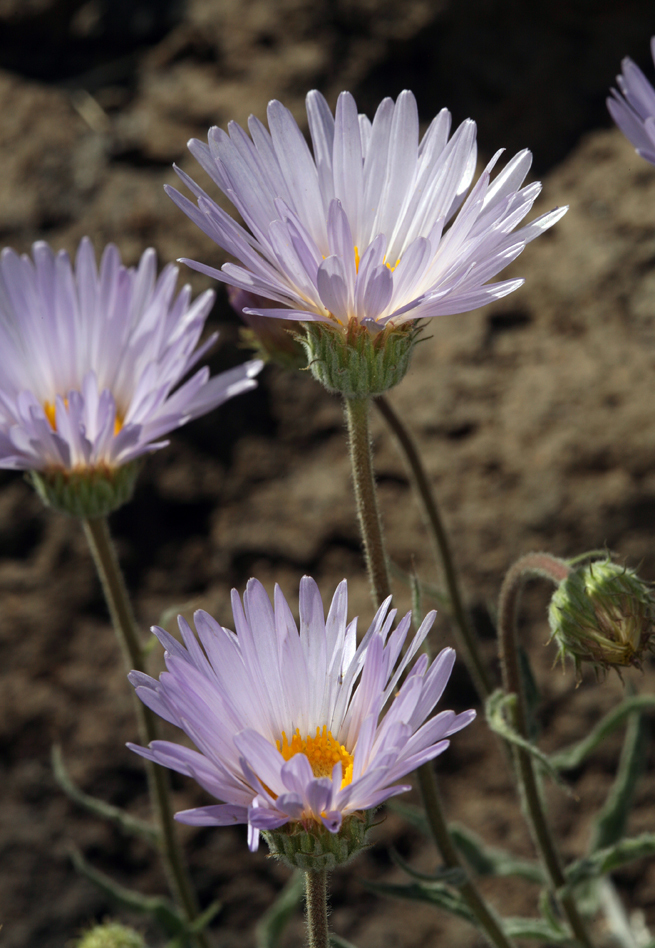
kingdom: Plantae
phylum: Tracheophyta
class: Magnoliopsida
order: Asterales
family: Asteraceae
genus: Xylorhiza
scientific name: Xylorhiza tortifolia
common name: Hurt-leaf woody-aster
